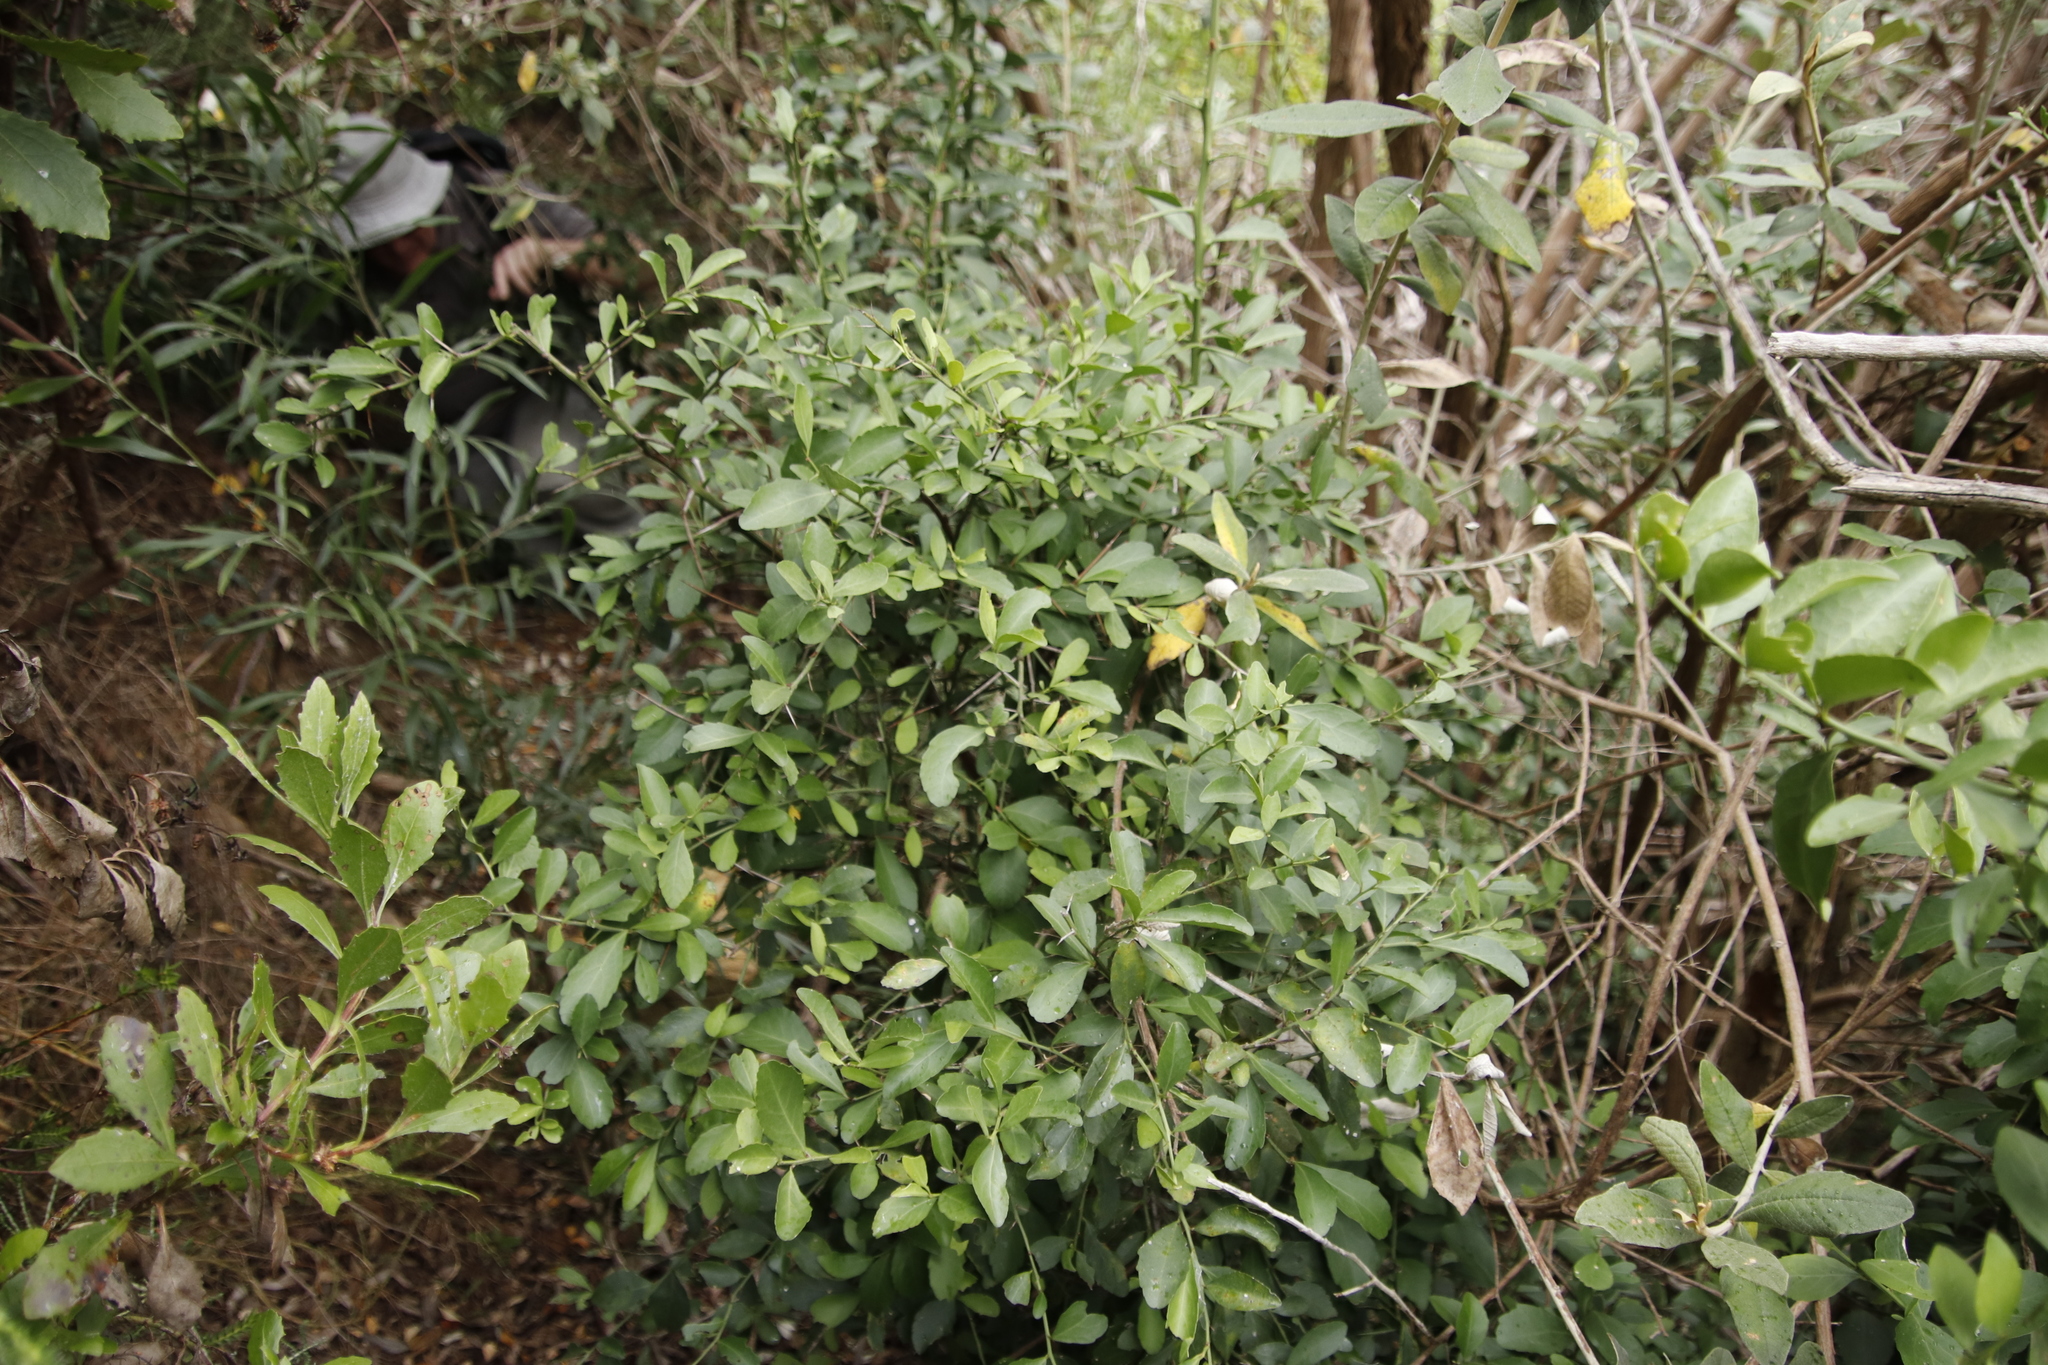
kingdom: Plantae
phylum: Tracheophyta
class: Magnoliopsida
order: Celastrales
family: Celastraceae
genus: Gymnosporia
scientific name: Gymnosporia buxifolia
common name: Common spike-thorn
